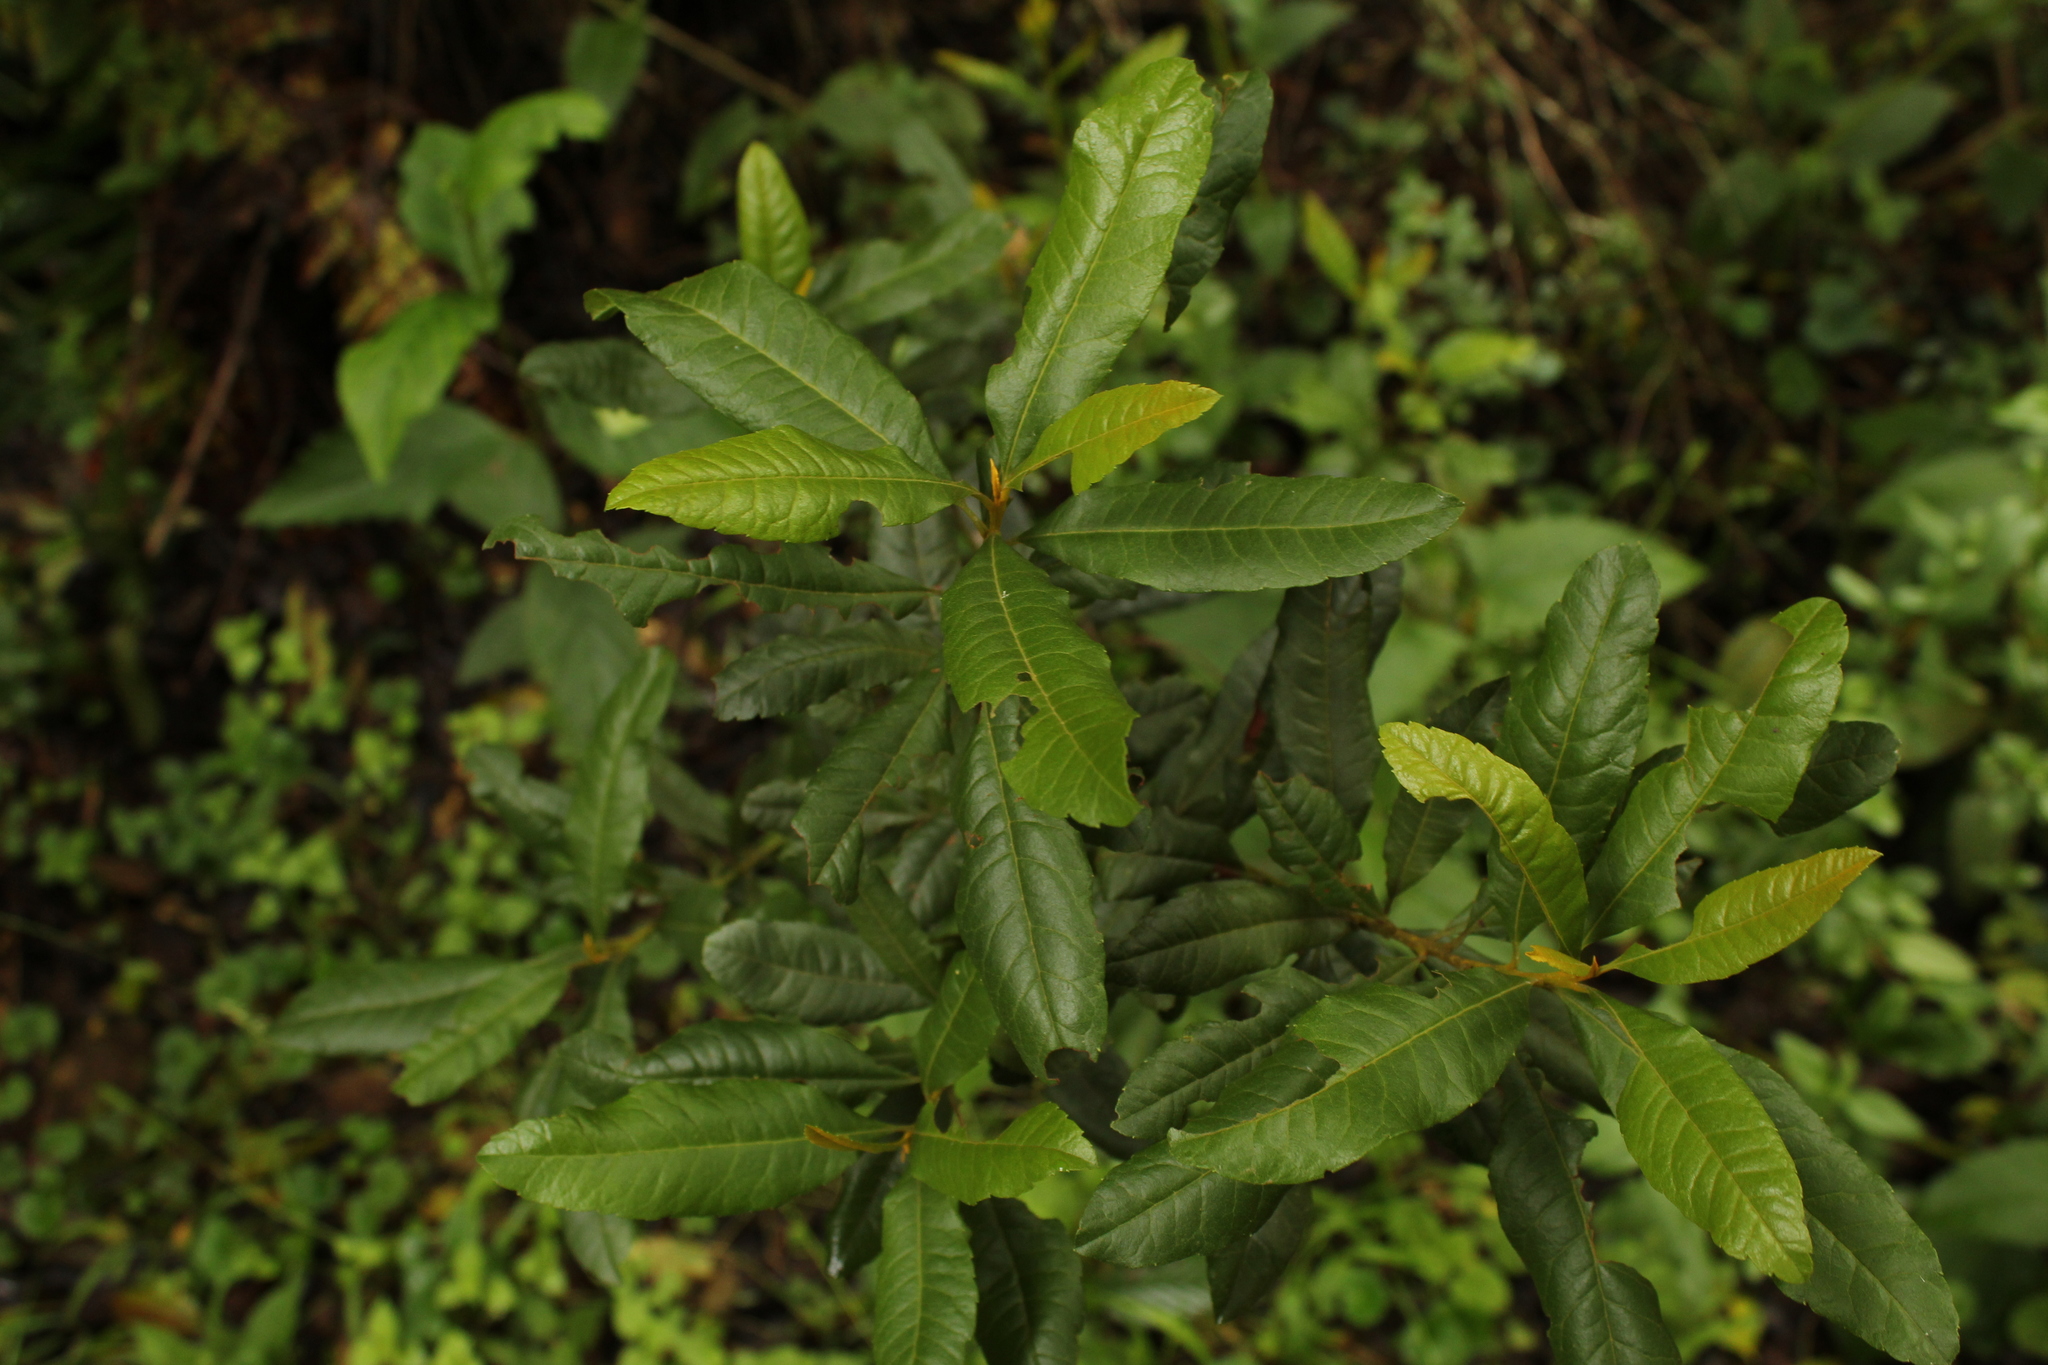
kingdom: Plantae
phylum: Tracheophyta
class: Magnoliopsida
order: Fagales
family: Fagaceae
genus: Quercus
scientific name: Quercus humboldtii
